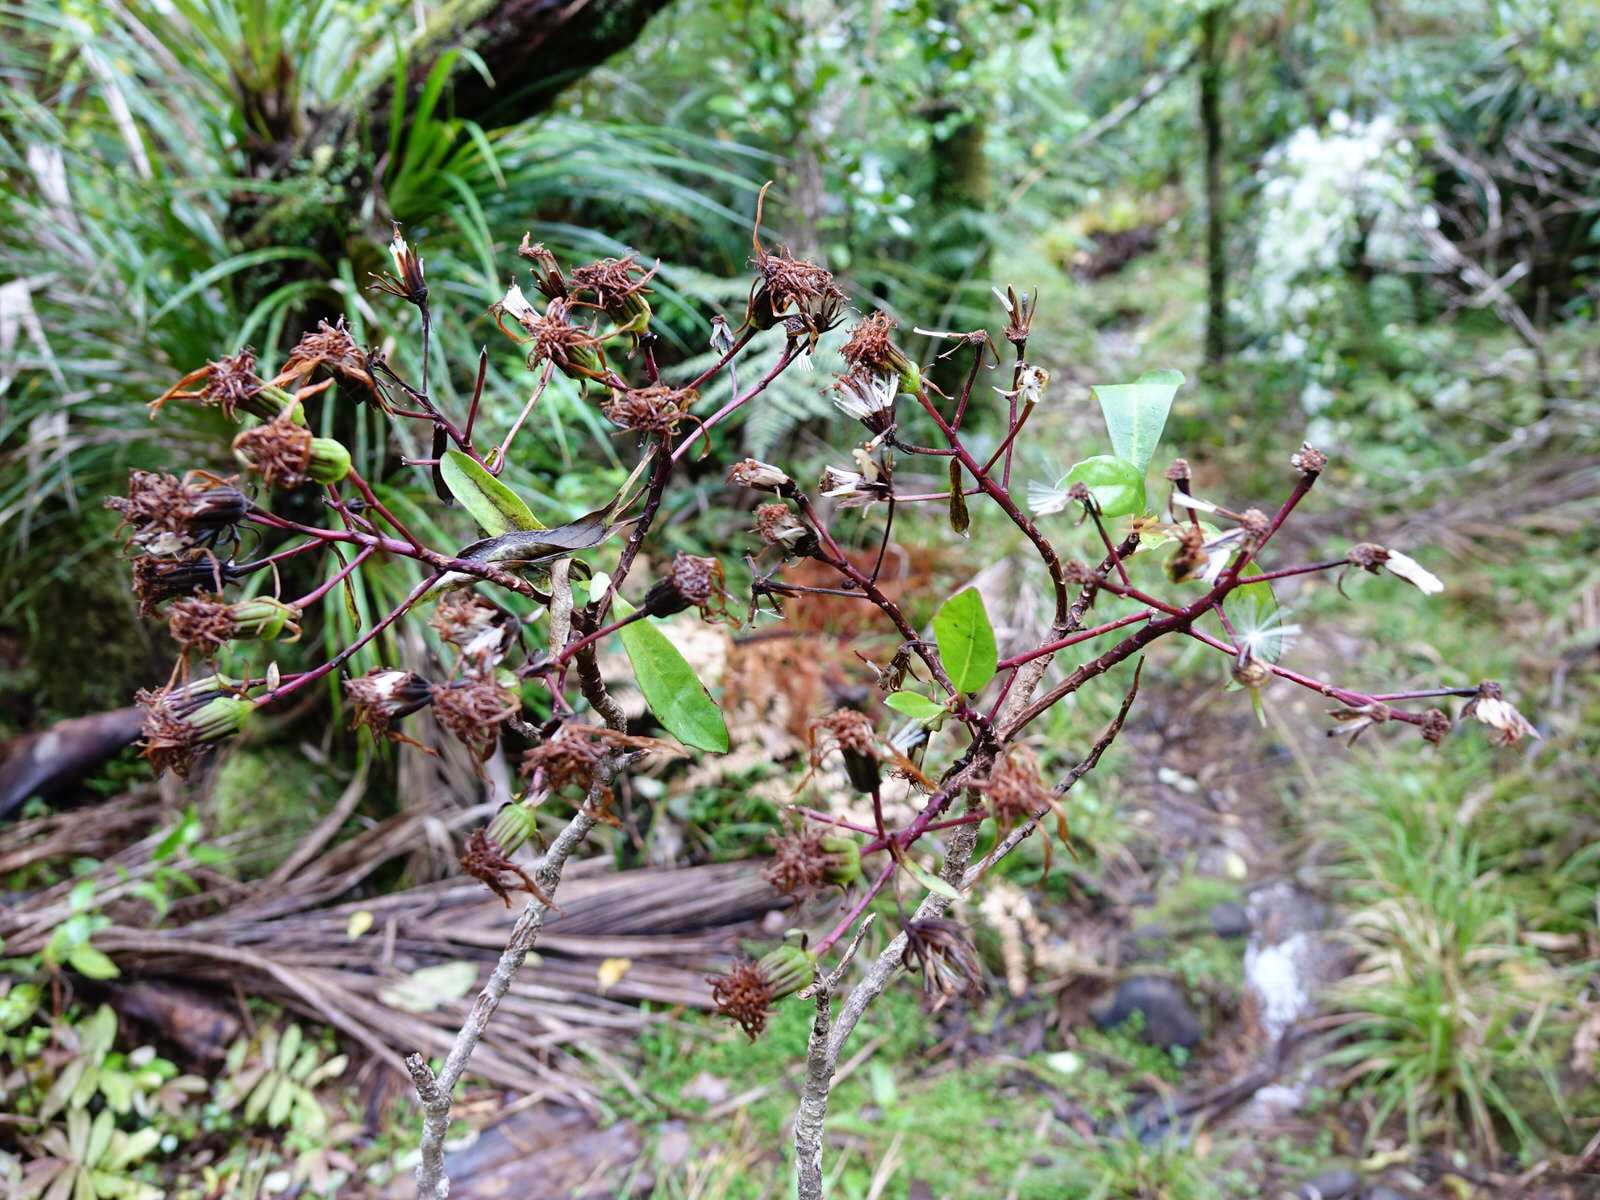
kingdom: Plantae
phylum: Tracheophyta
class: Magnoliopsida
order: Asterales
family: Asteraceae
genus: Brachyglottis
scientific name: Brachyglottis kirkii
